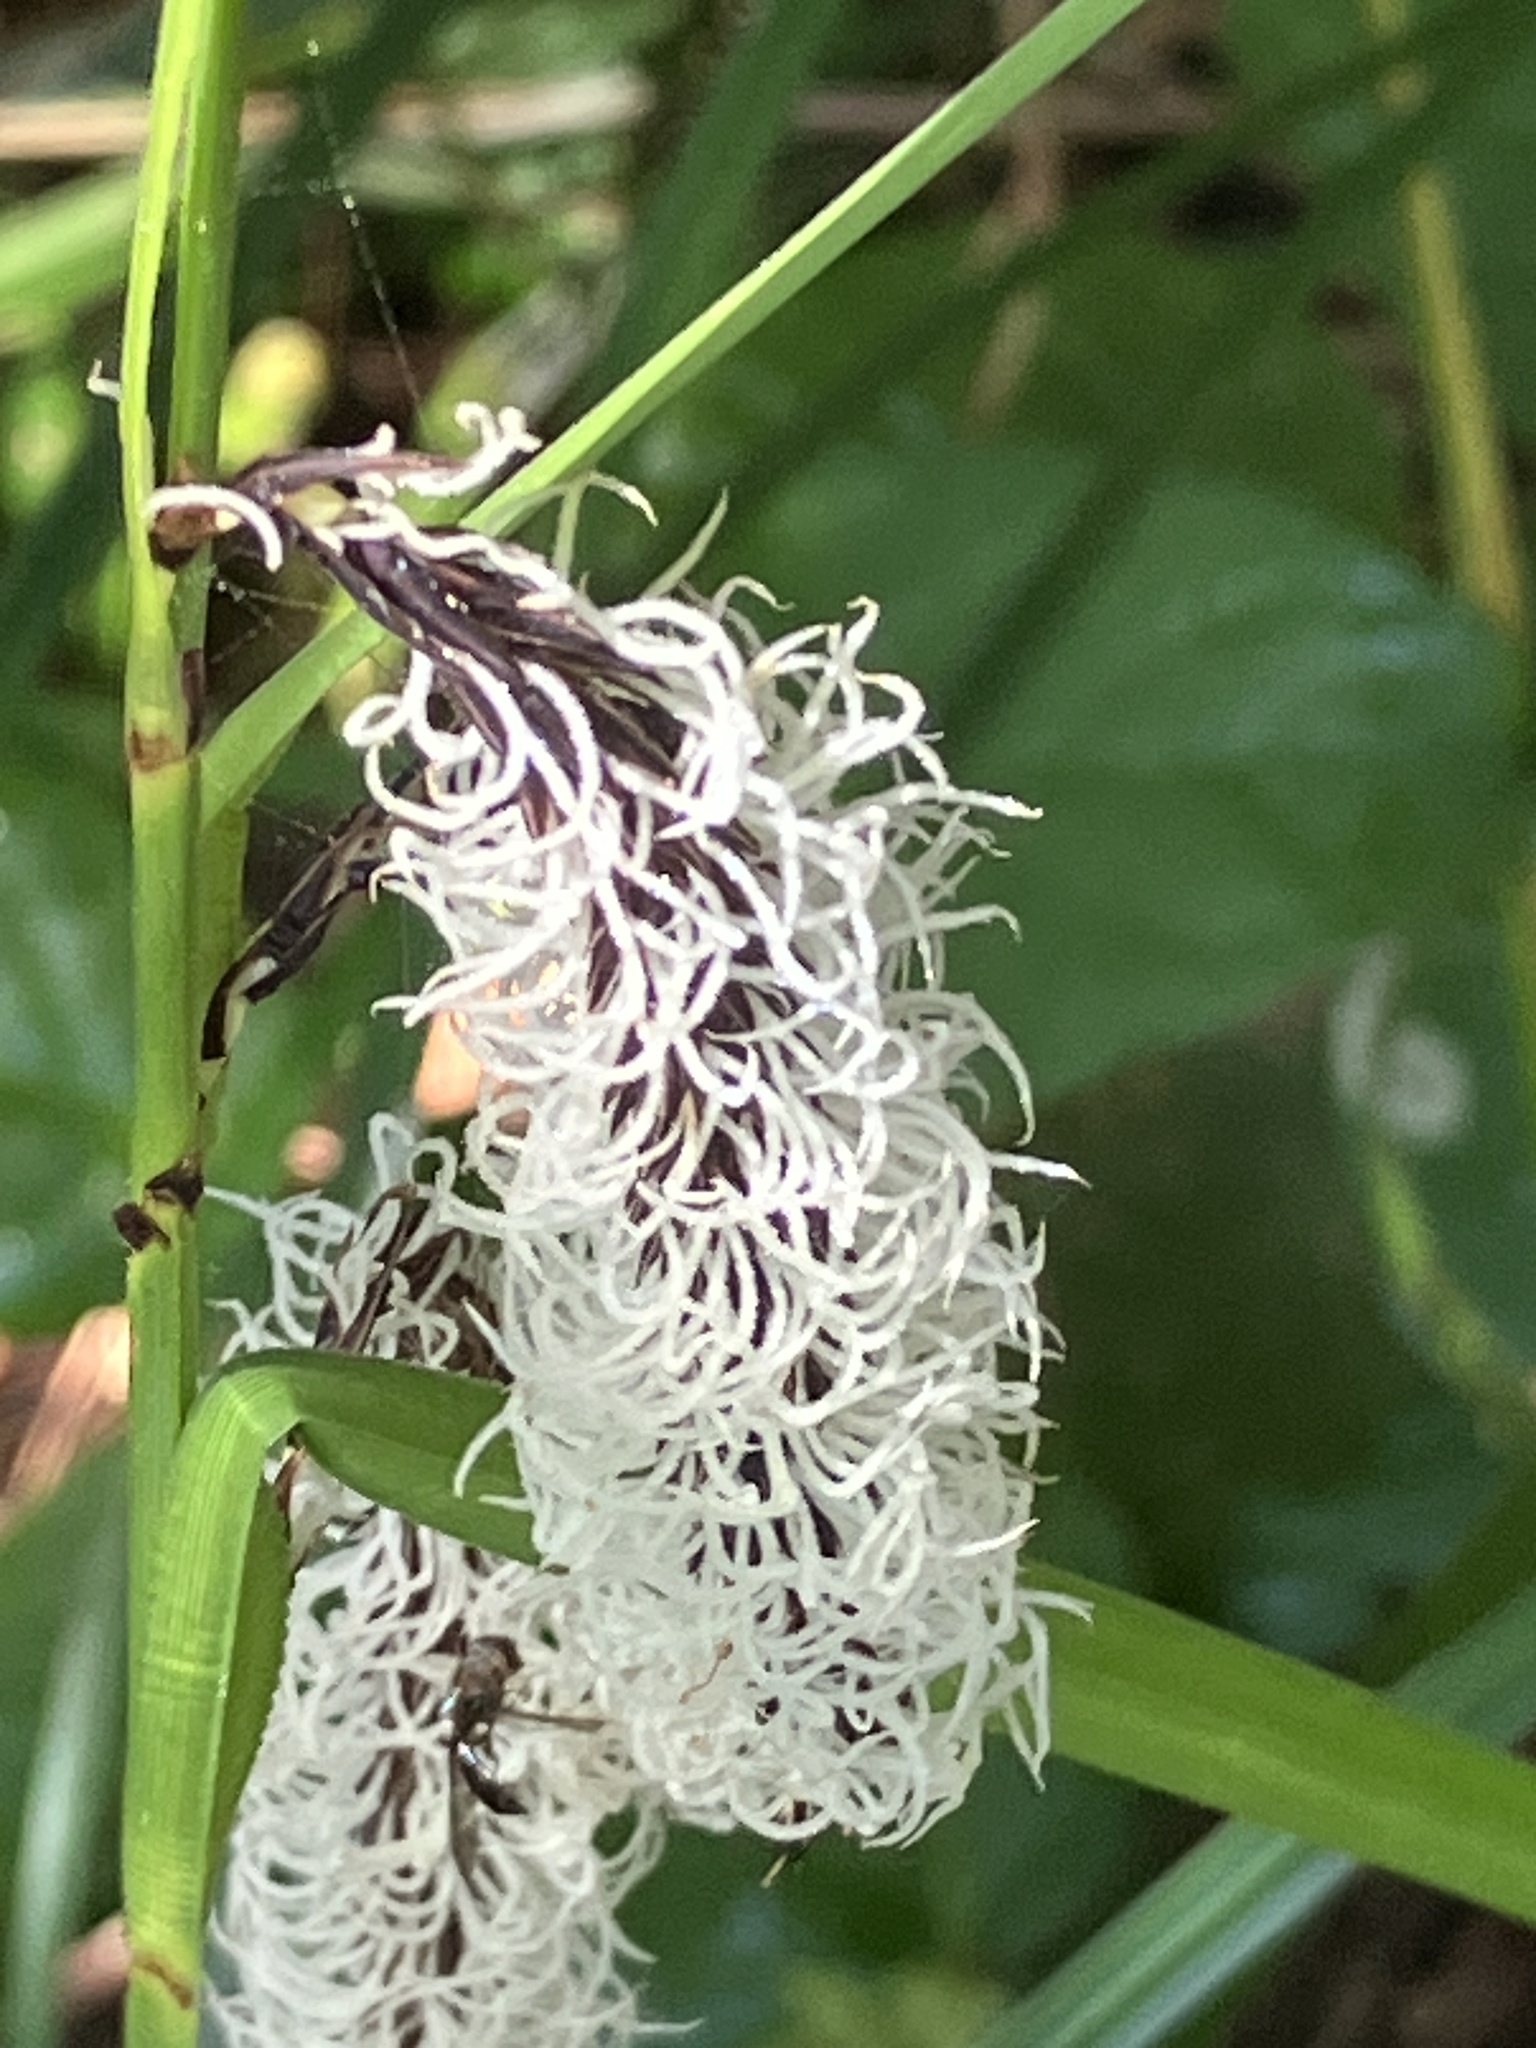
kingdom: Plantae
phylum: Tracheophyta
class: Liliopsida
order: Poales
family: Cyperaceae
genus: Carex
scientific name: Carex obnupta
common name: Slough sedge
